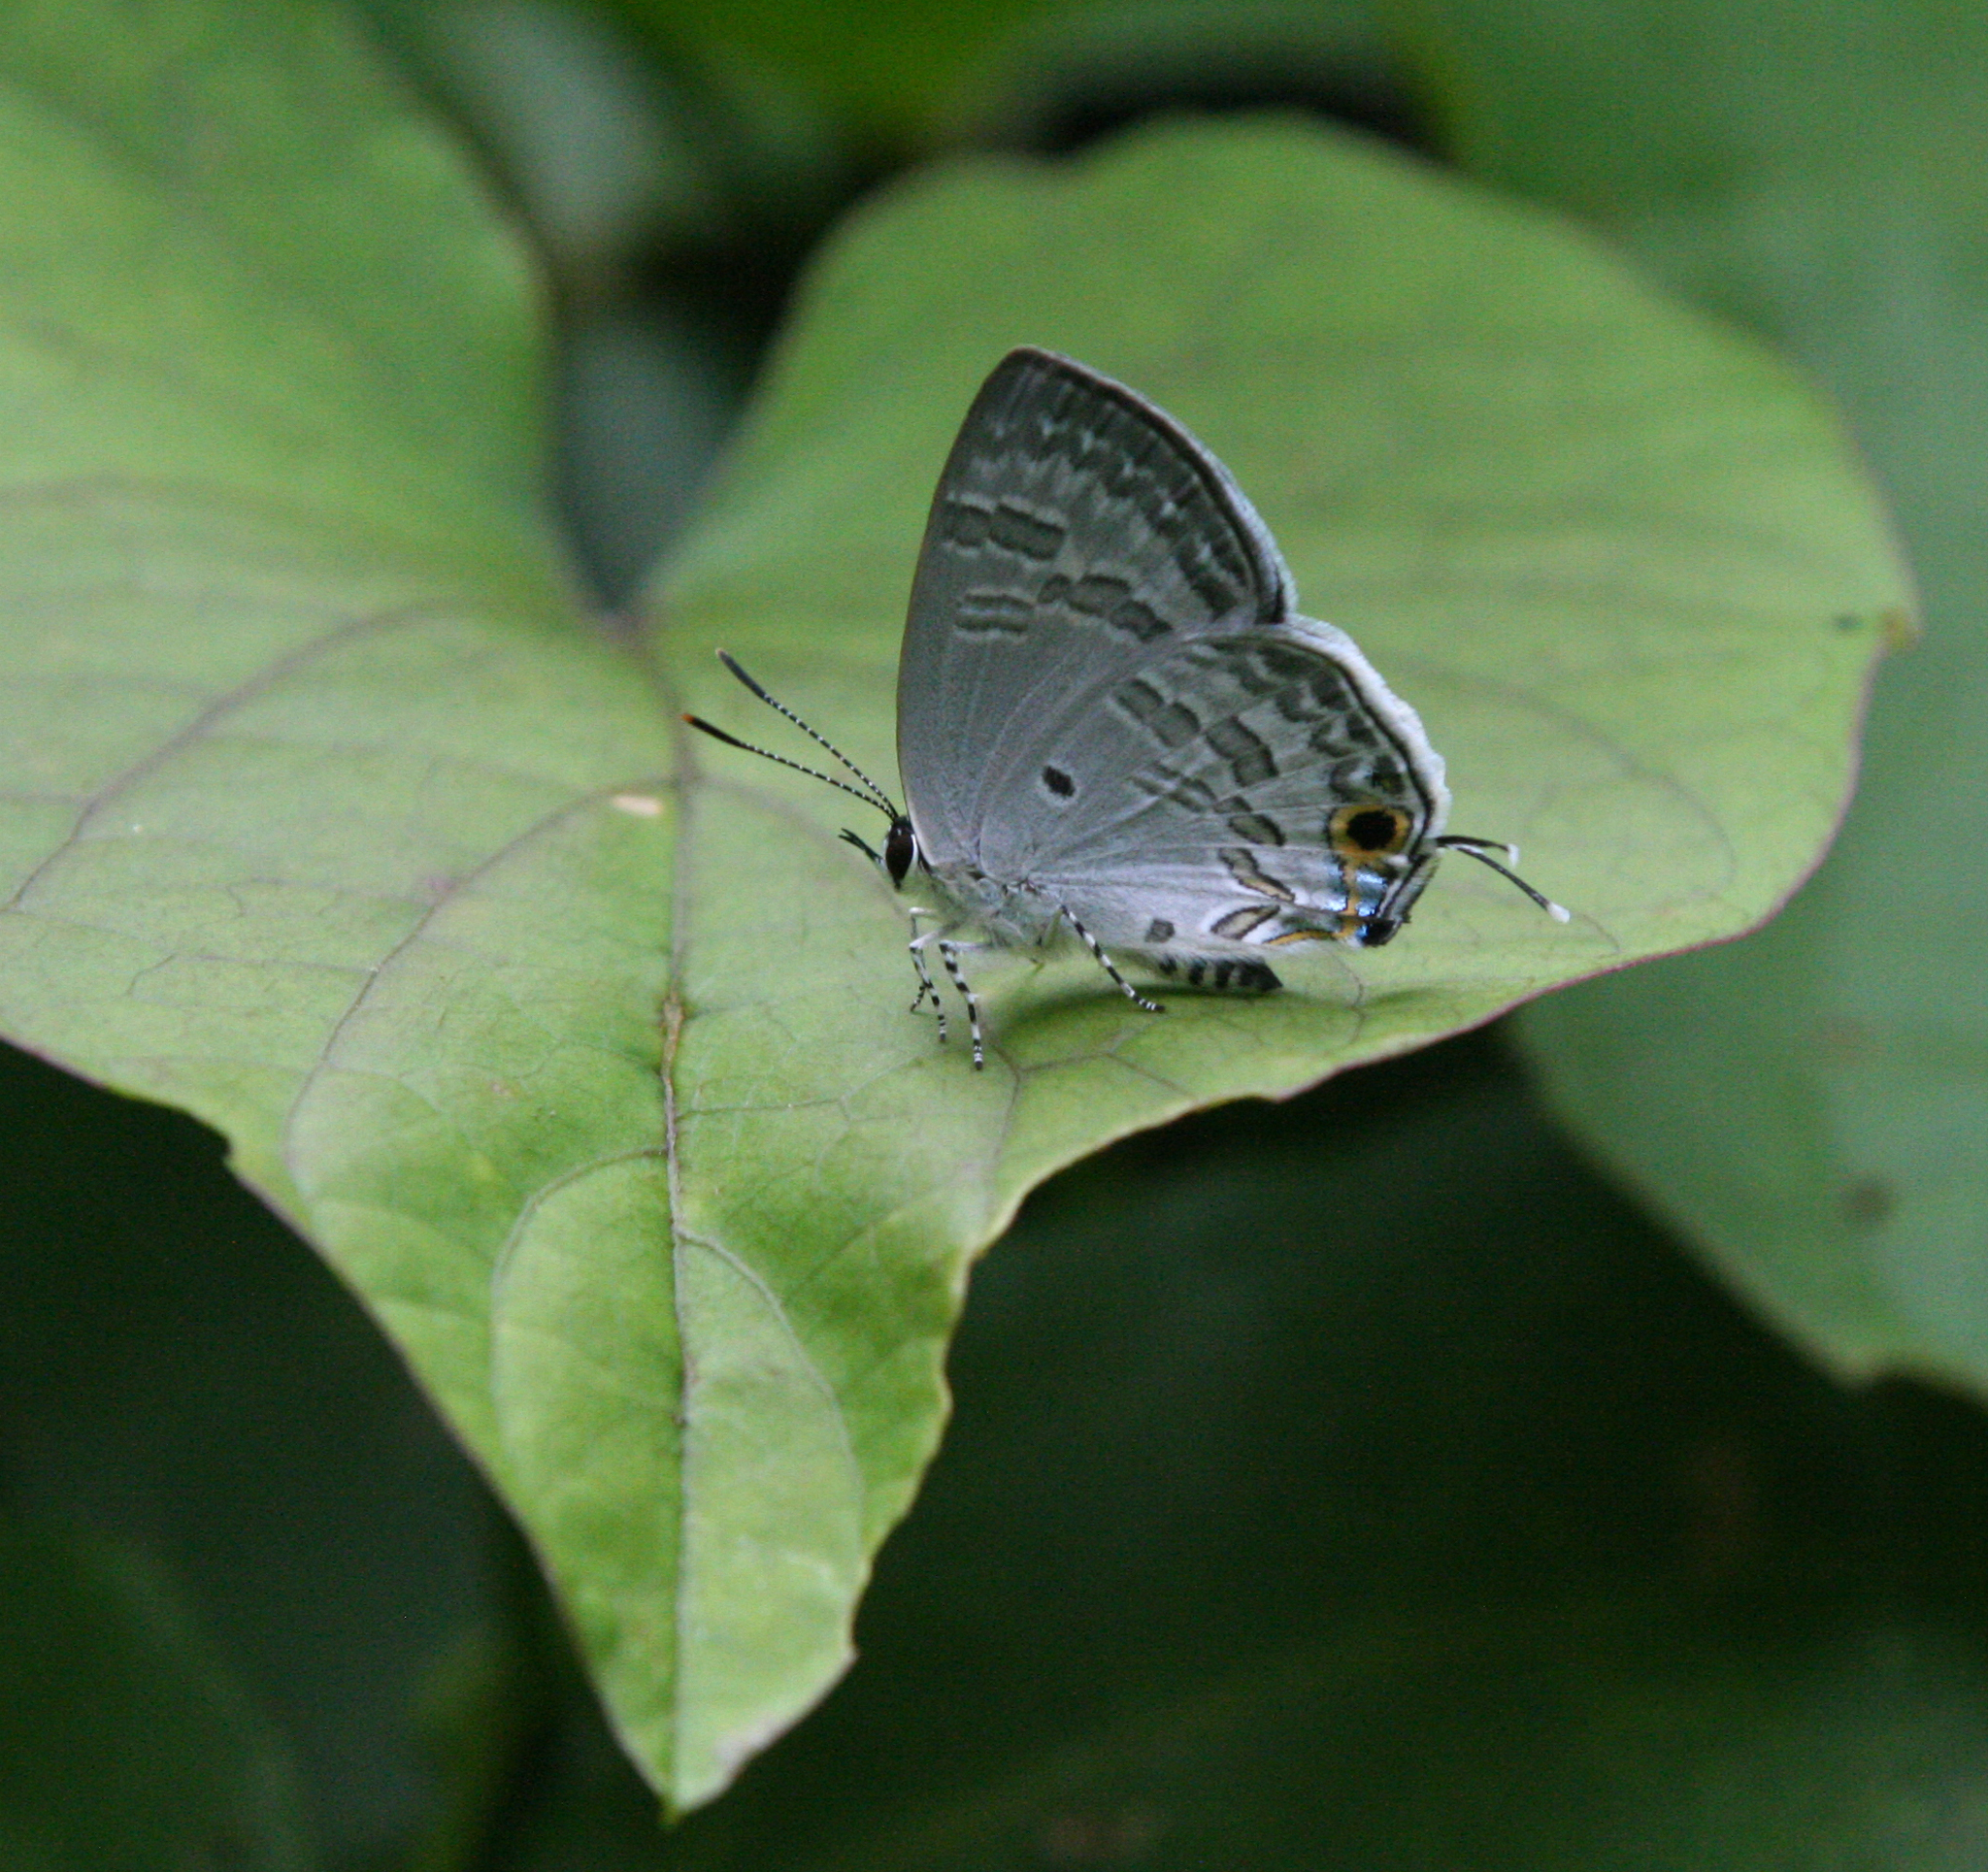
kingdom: Animalia
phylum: Arthropoda
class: Insecta
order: Lepidoptera
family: Lycaenidae
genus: Sinthusa
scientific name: Sinthusa chandrana
